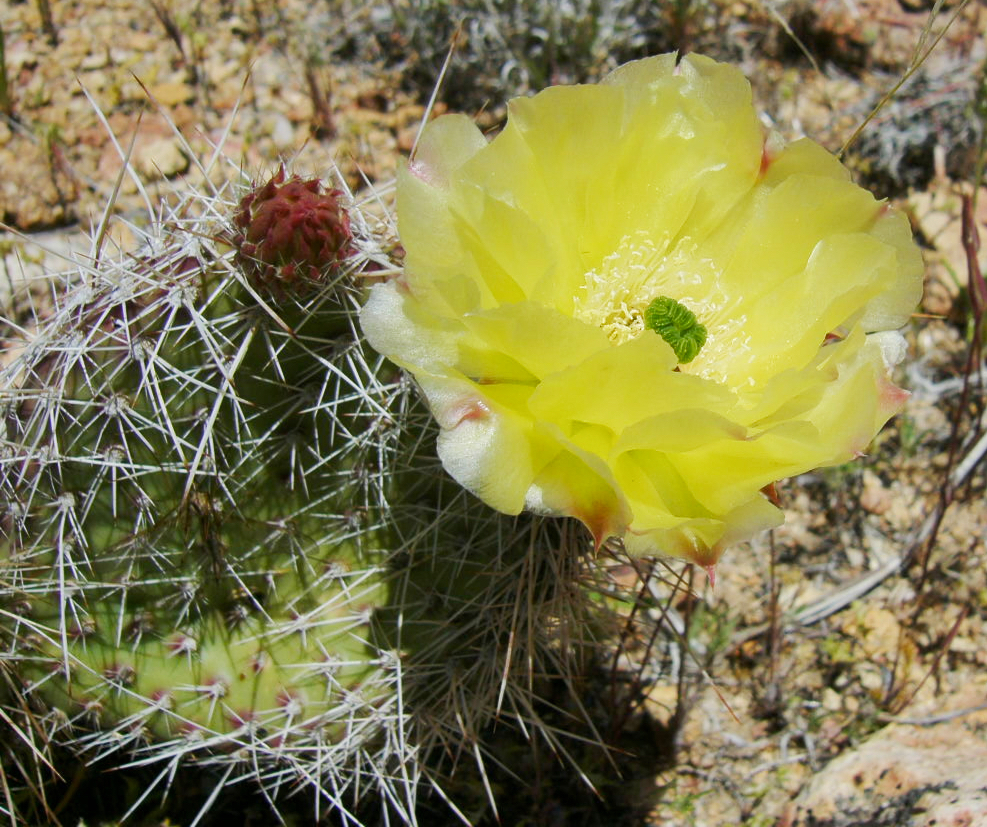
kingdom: Plantae
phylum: Tracheophyta
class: Magnoliopsida
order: Caryophyllales
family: Cactaceae
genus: Opuntia
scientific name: Opuntia polyacantha
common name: Plains prickly-pear
